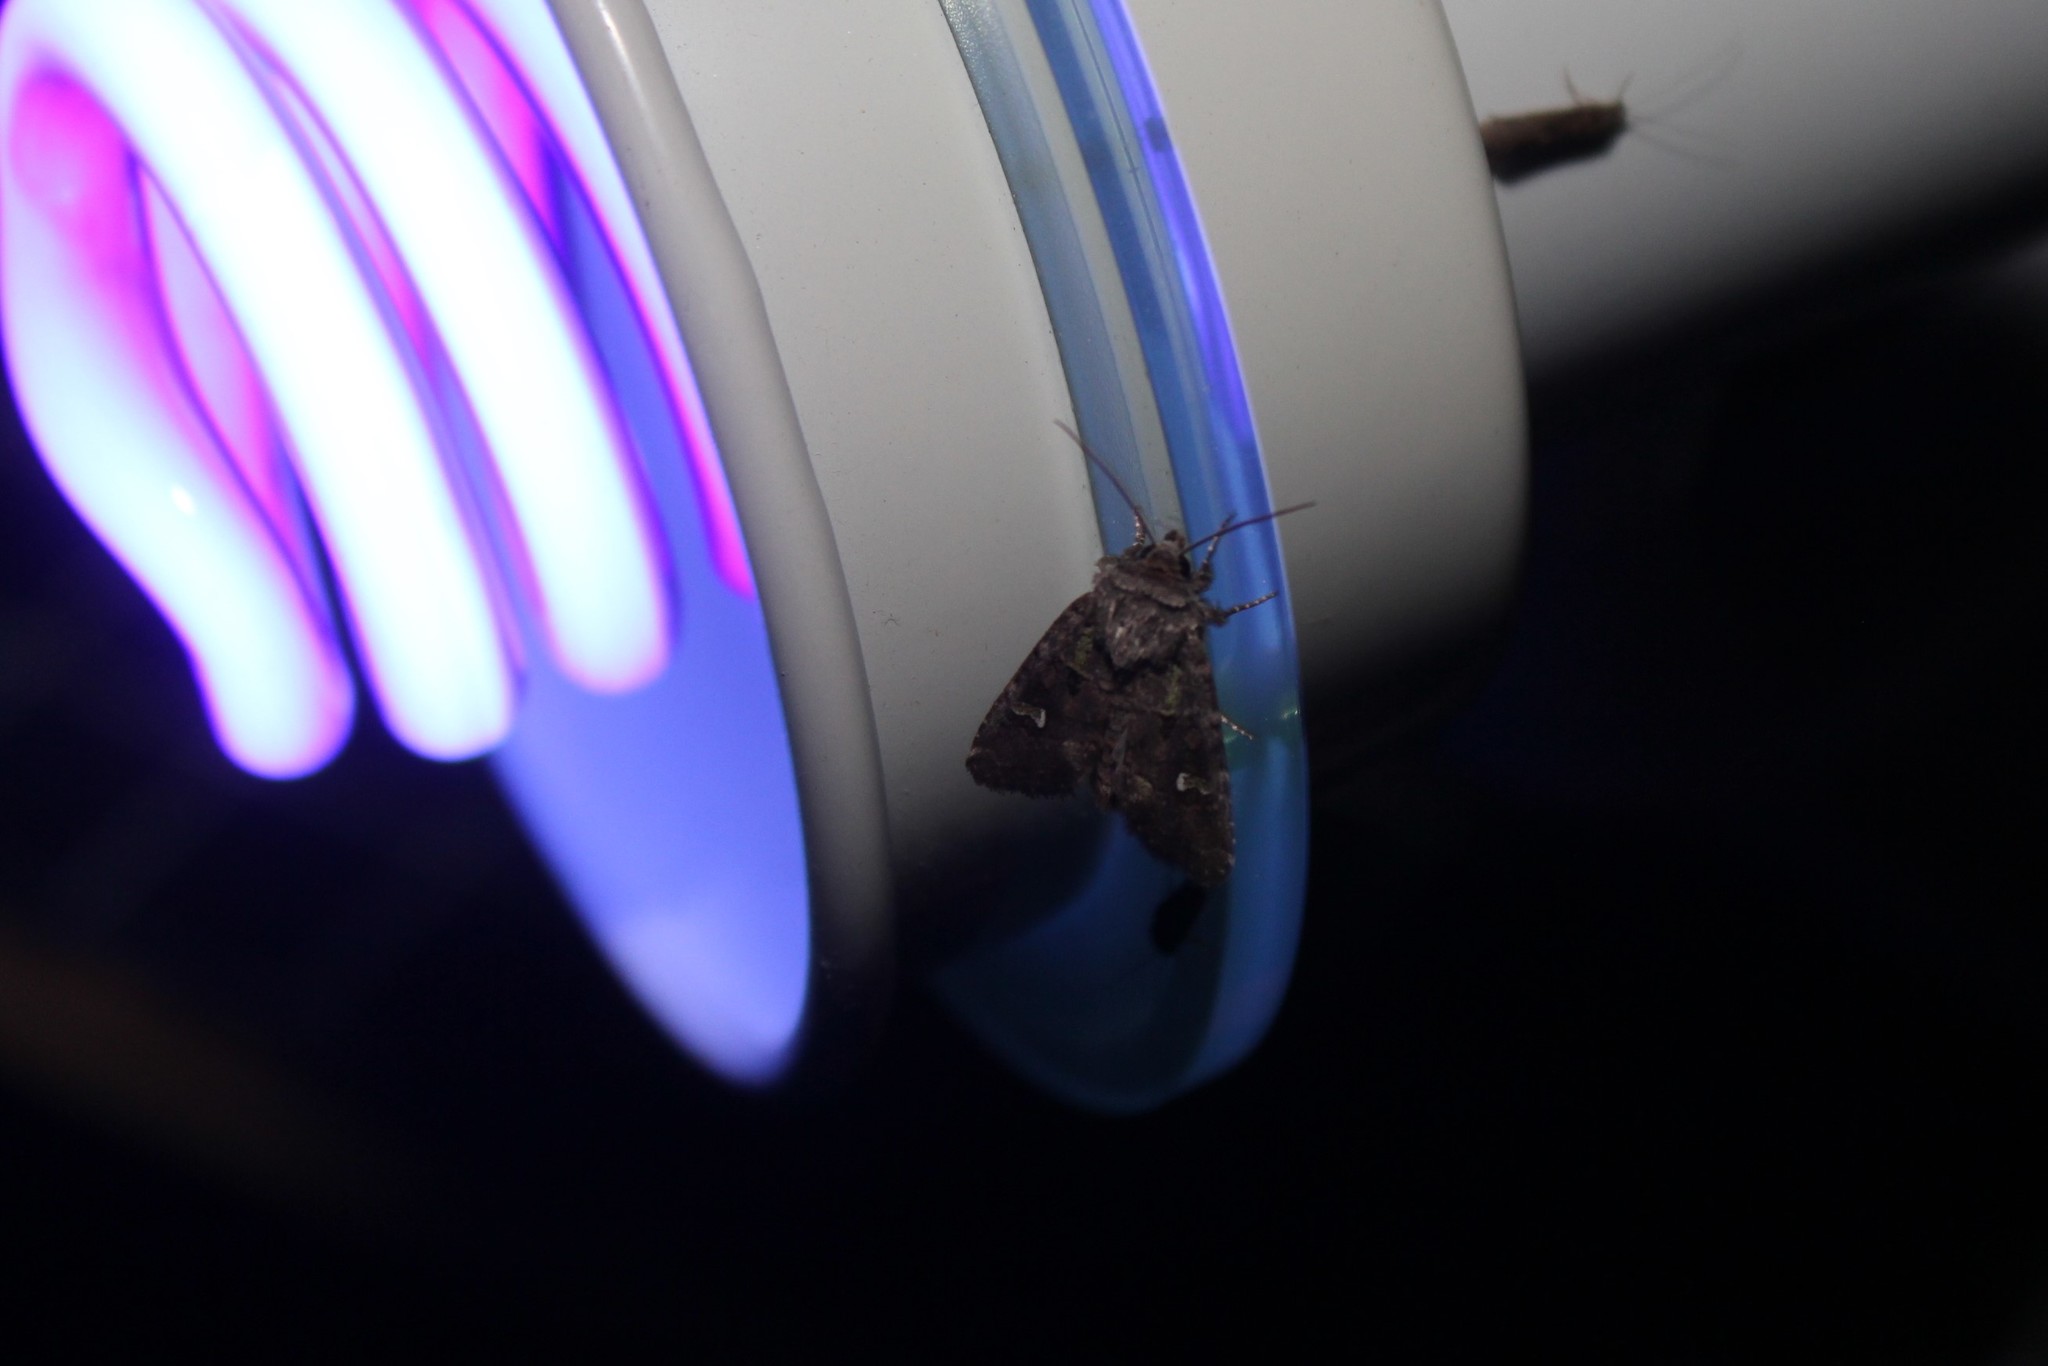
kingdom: Animalia
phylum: Arthropoda
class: Insecta
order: Lepidoptera
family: Noctuidae
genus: Lacinipolia
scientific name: Lacinipolia renigera
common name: Kidney-spotted minor
